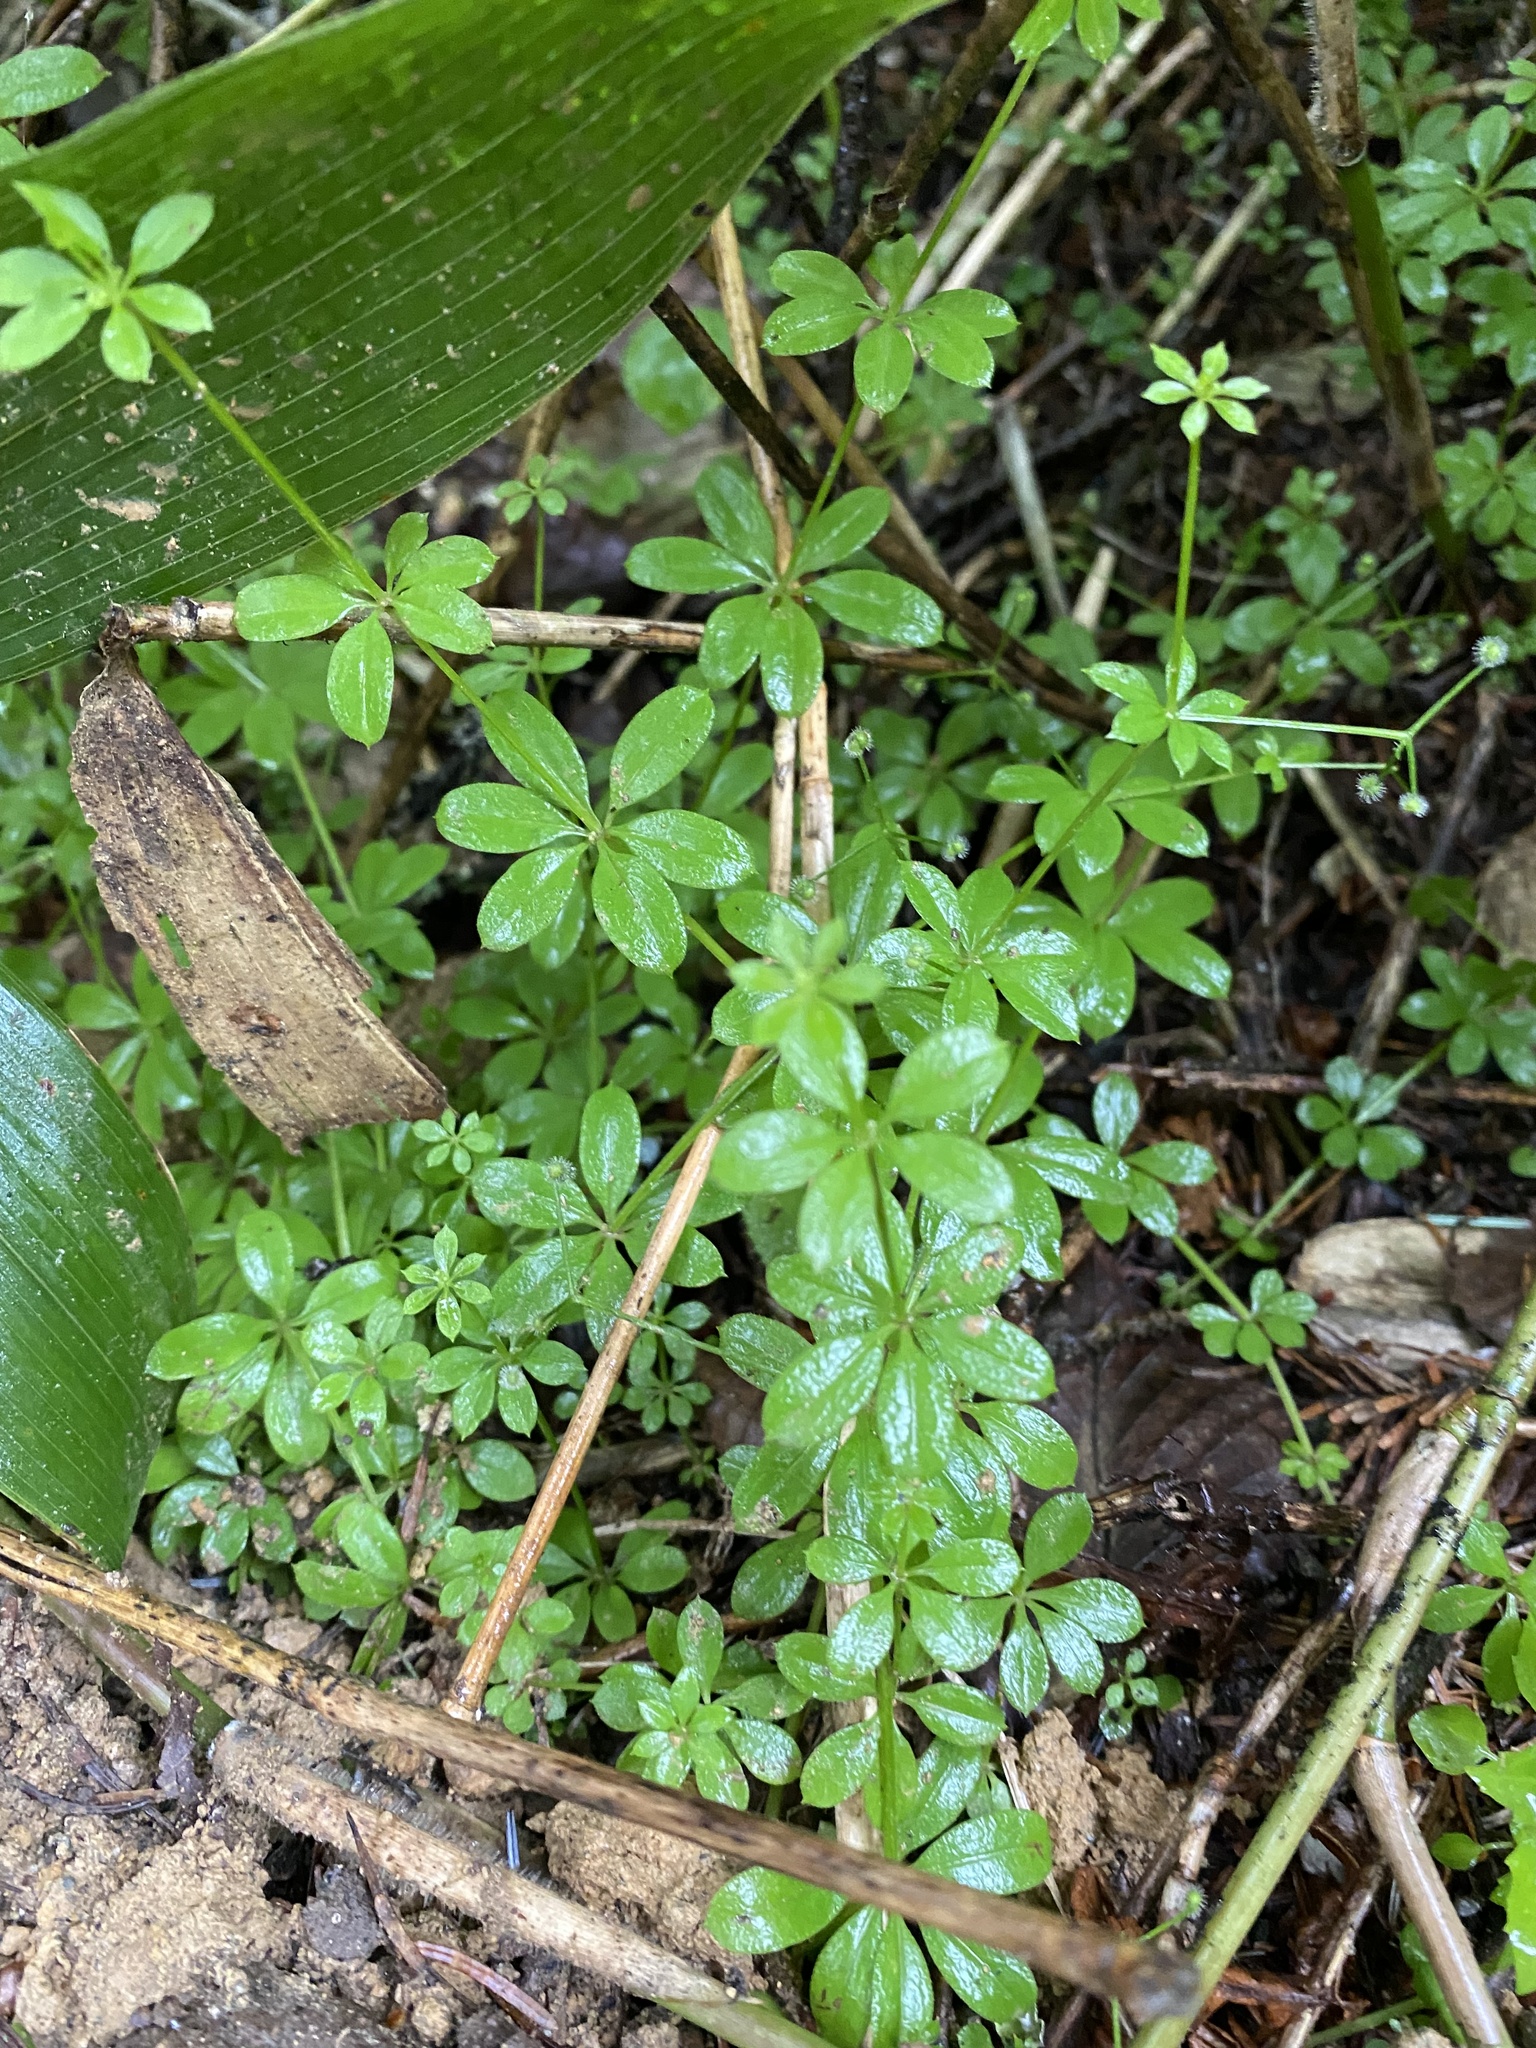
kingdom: Plantae
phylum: Tracheophyta
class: Magnoliopsida
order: Gentianales
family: Rubiaceae
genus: Galium
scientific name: Galium triflorum
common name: Fragrant bedstraw
